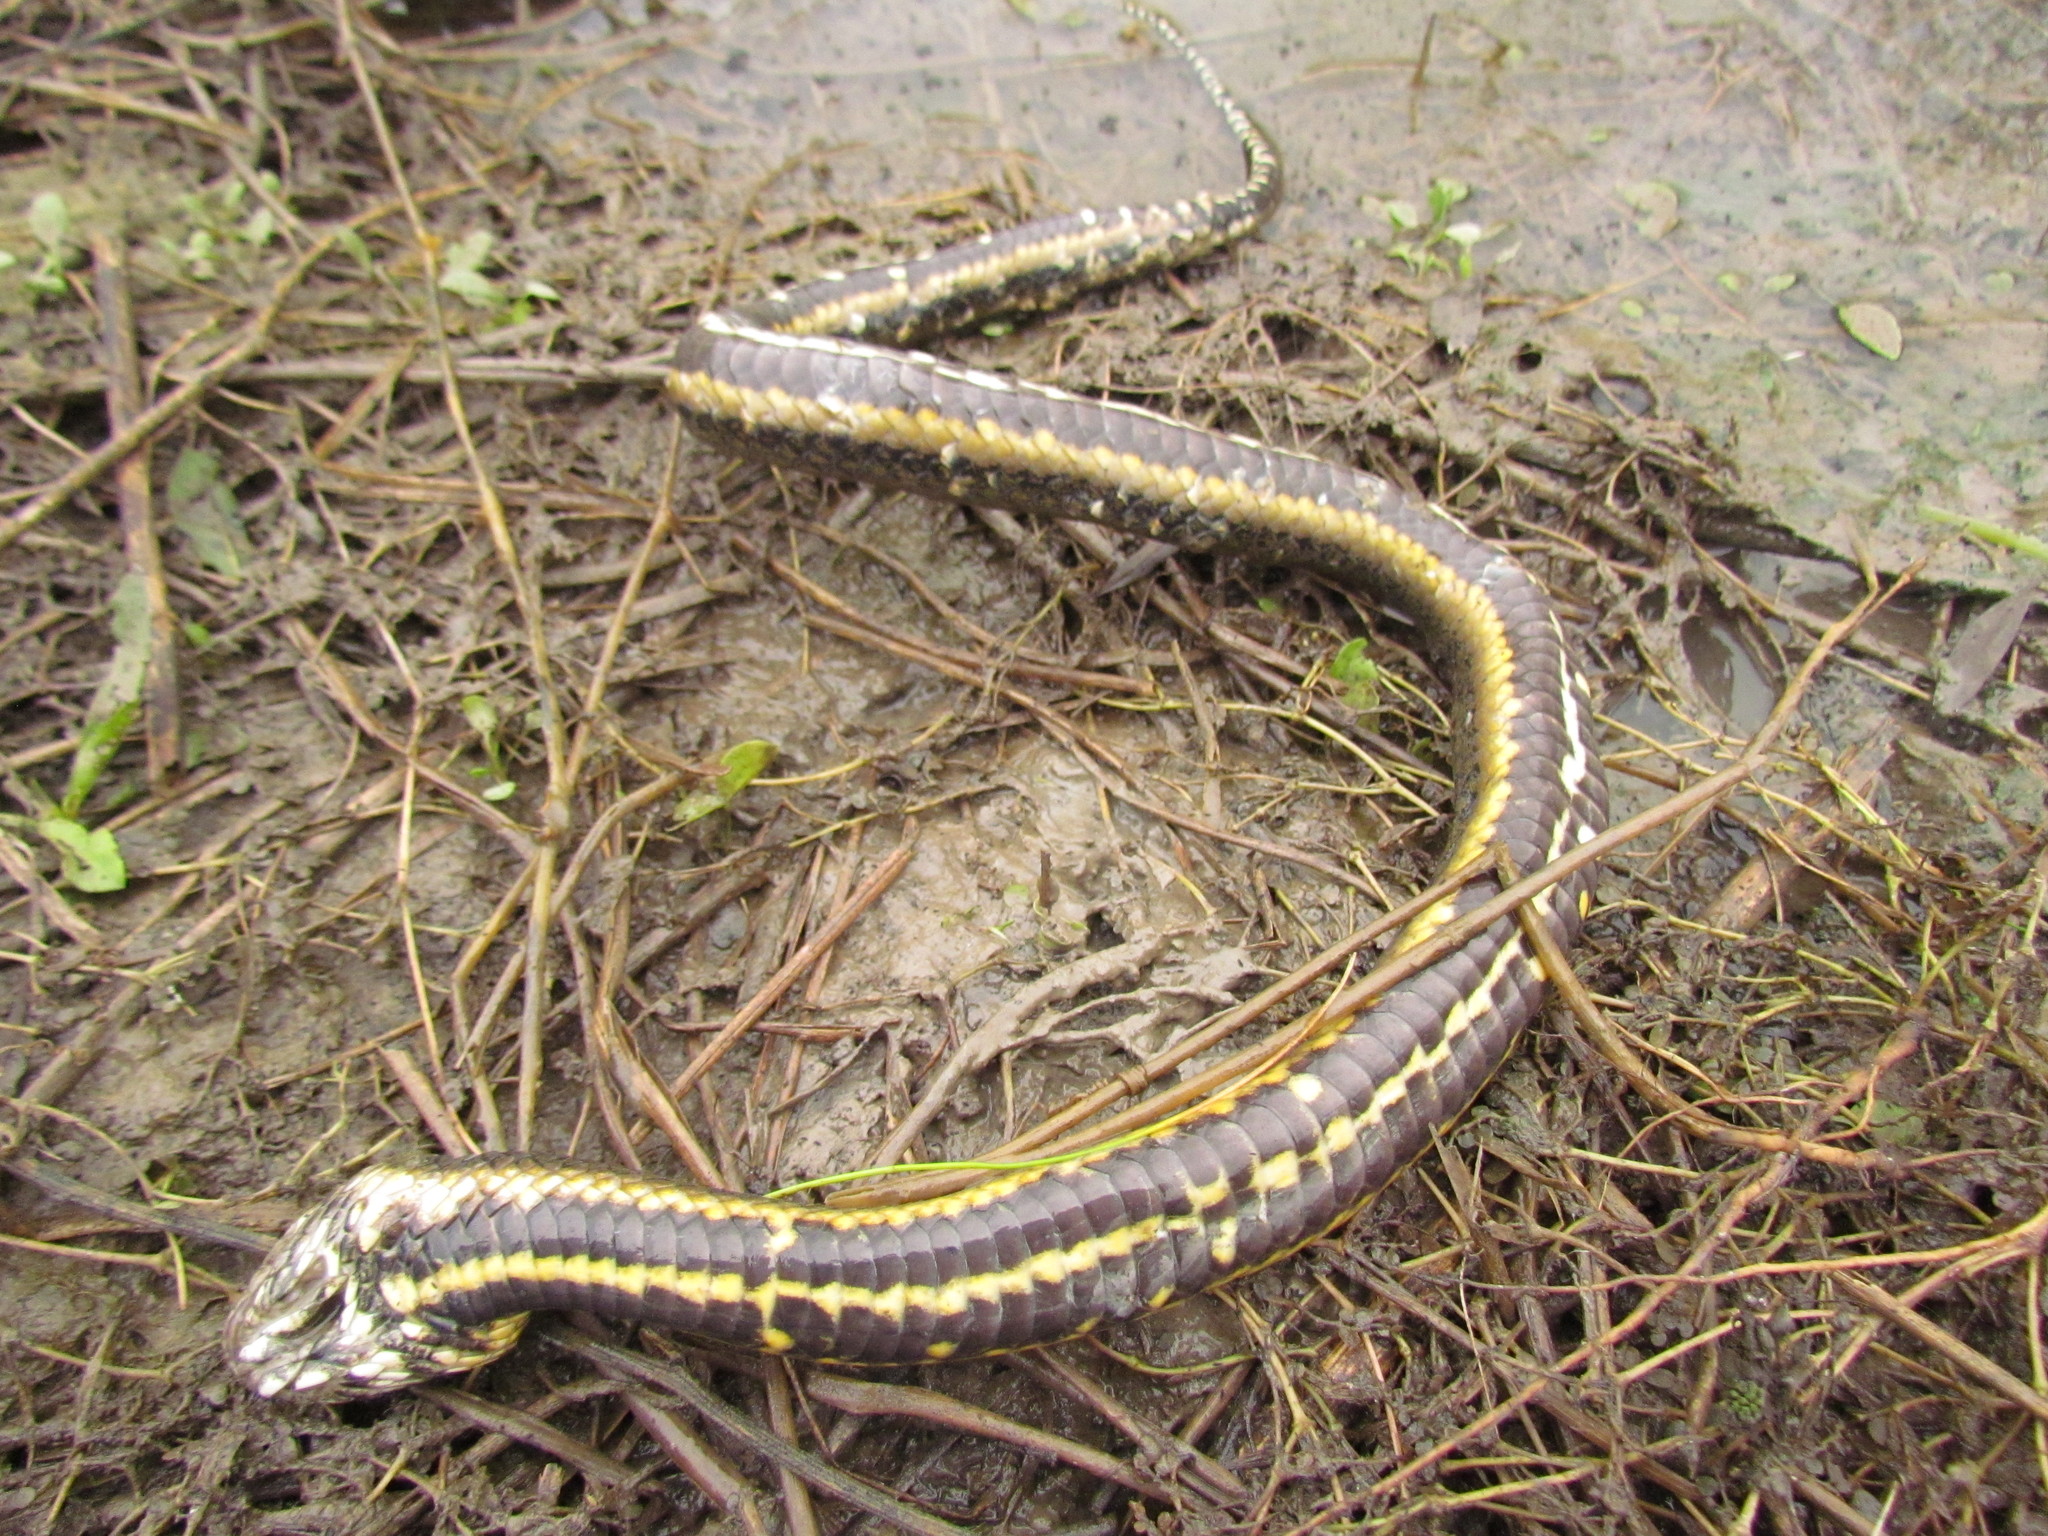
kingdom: Animalia
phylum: Chordata
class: Squamata
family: Colubridae
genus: Helicops
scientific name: Helicops infrataeniatus
